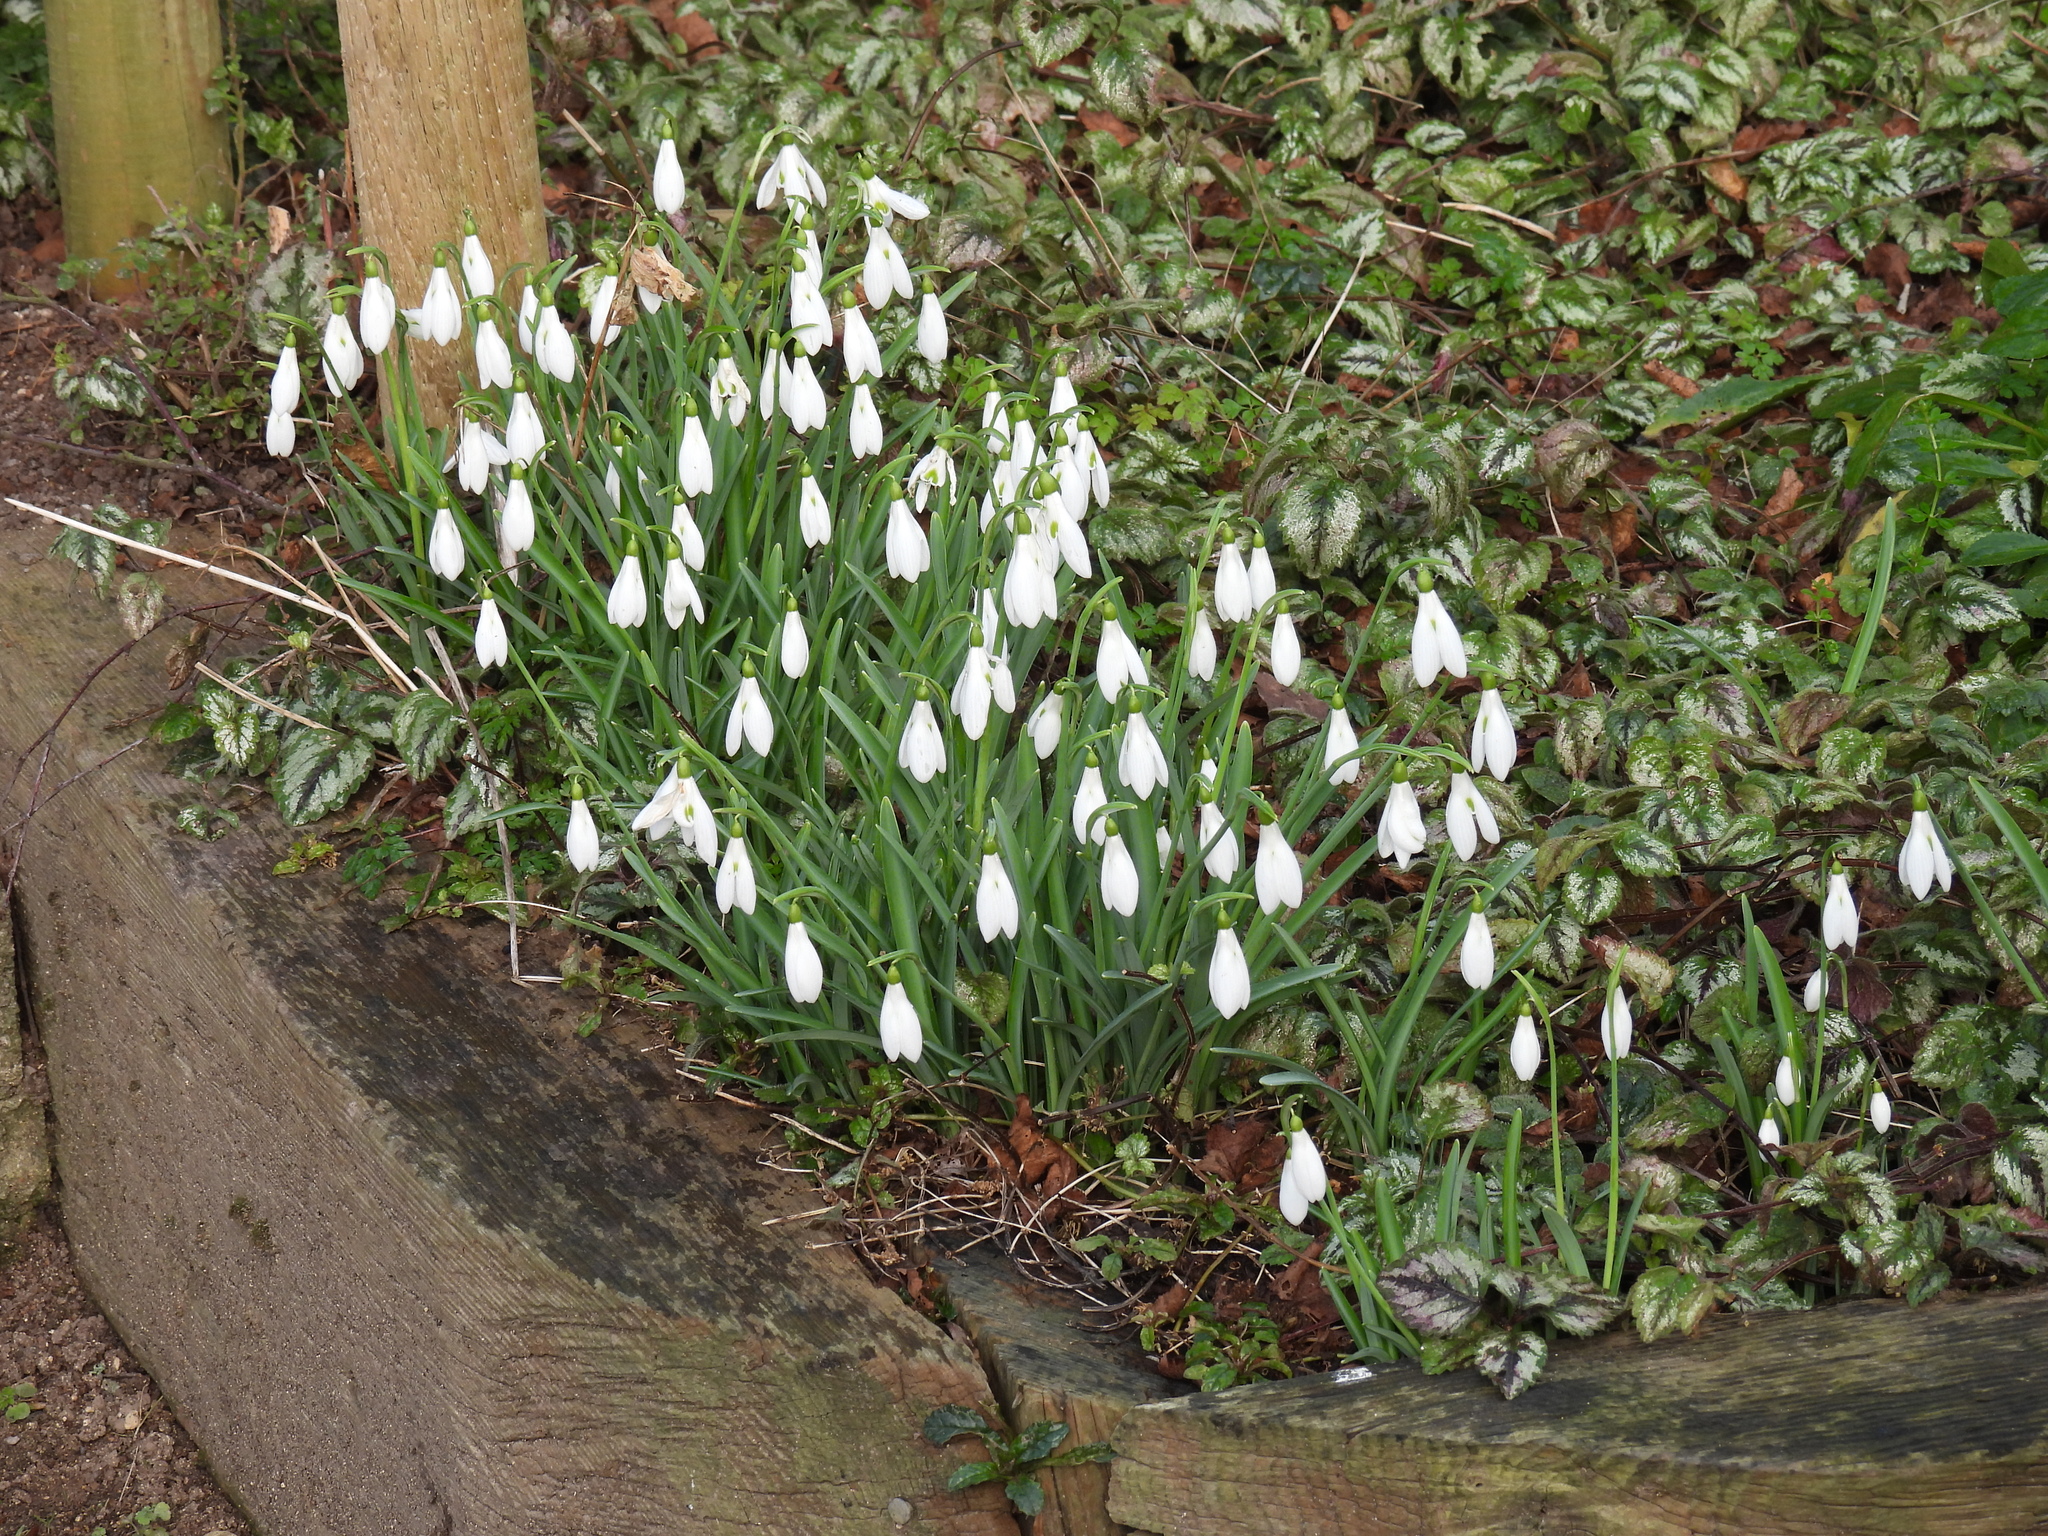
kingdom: Plantae
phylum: Tracheophyta
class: Liliopsida
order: Asparagales
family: Amaryllidaceae
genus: Galanthus
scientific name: Galanthus nivalis
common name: Snowdrop
